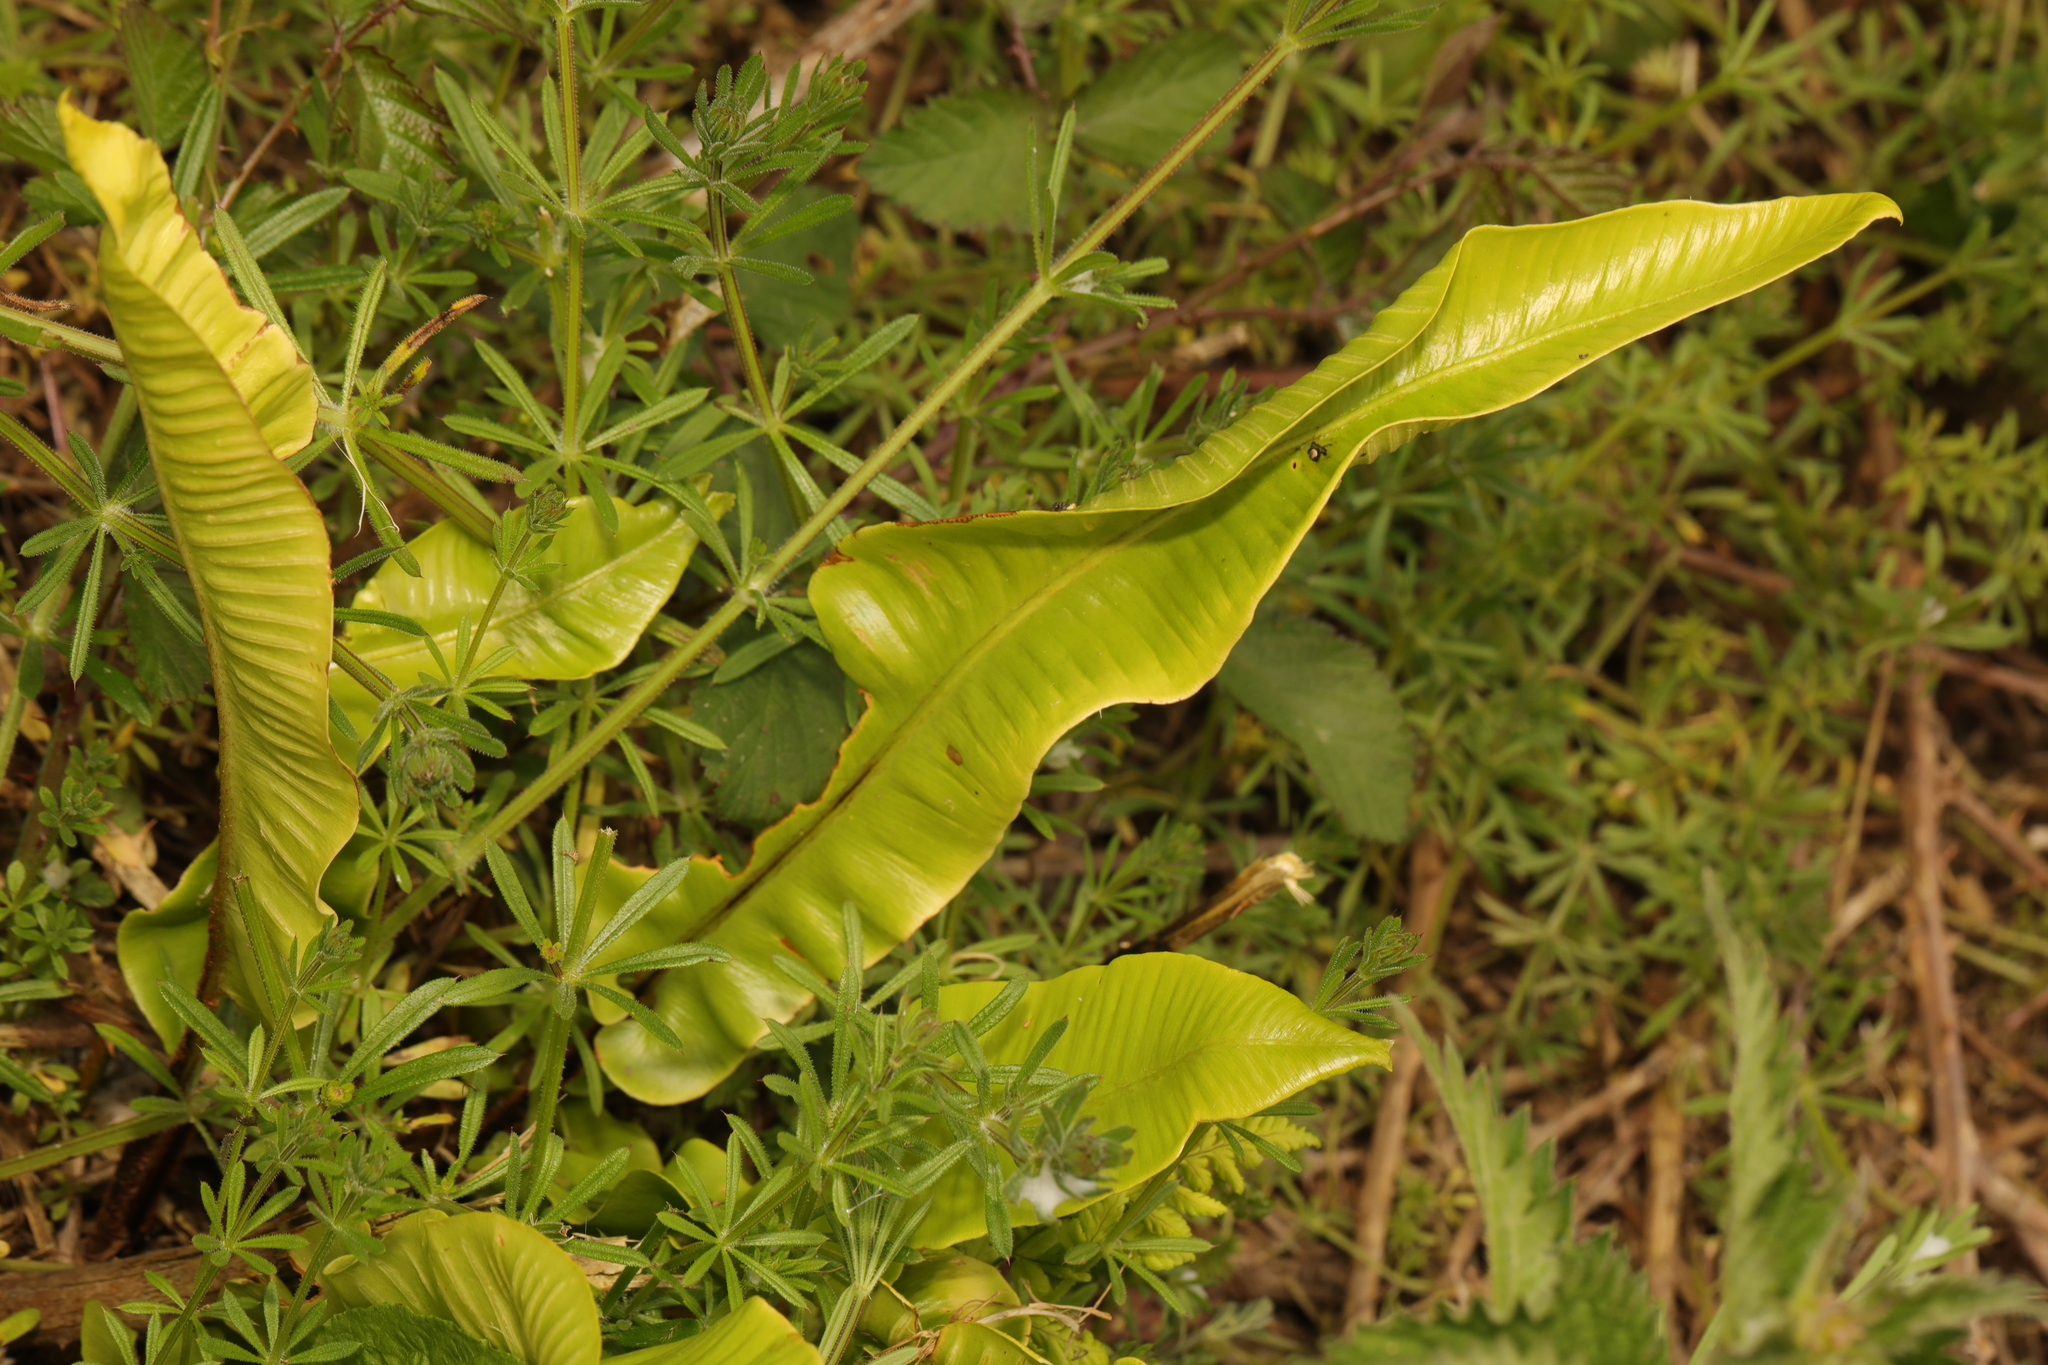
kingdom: Plantae
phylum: Tracheophyta
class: Polypodiopsida
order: Polypodiales
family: Aspleniaceae
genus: Asplenium
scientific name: Asplenium scolopendrium
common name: Hart's-tongue fern
